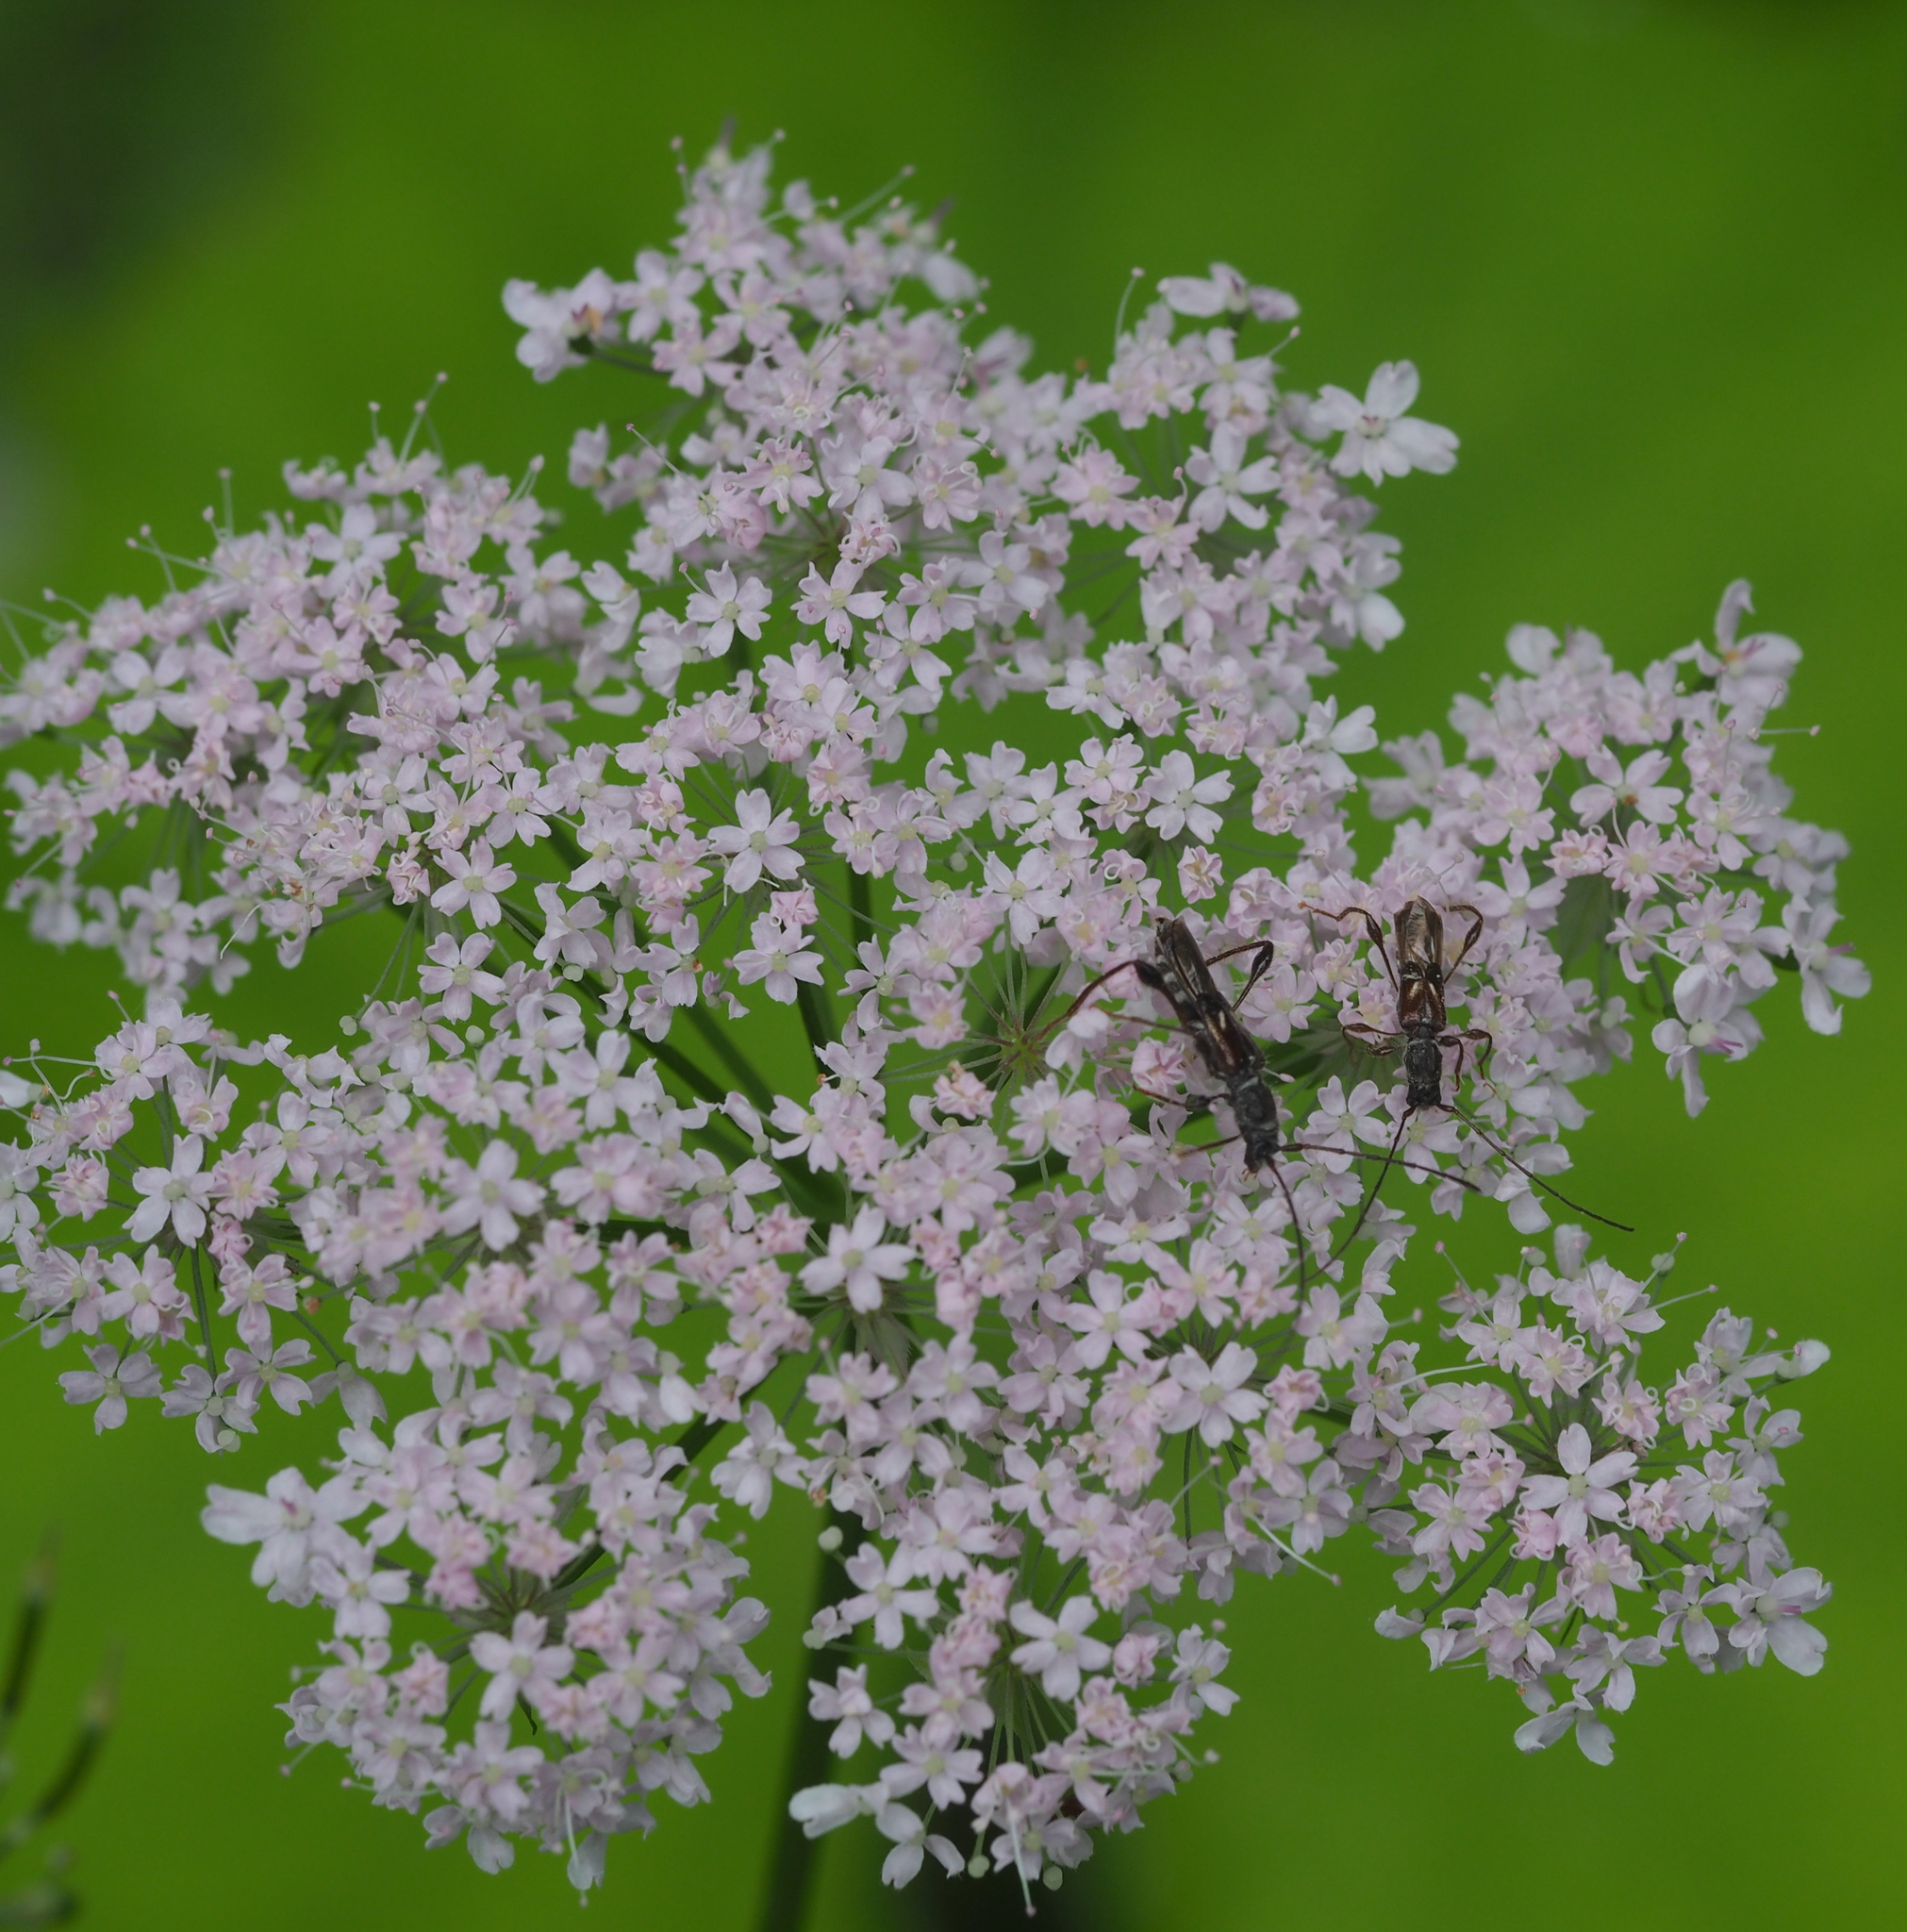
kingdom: Animalia
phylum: Arthropoda
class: Insecta
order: Coleoptera
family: Cerambycidae
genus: Molorchus
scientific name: Molorchus minor
